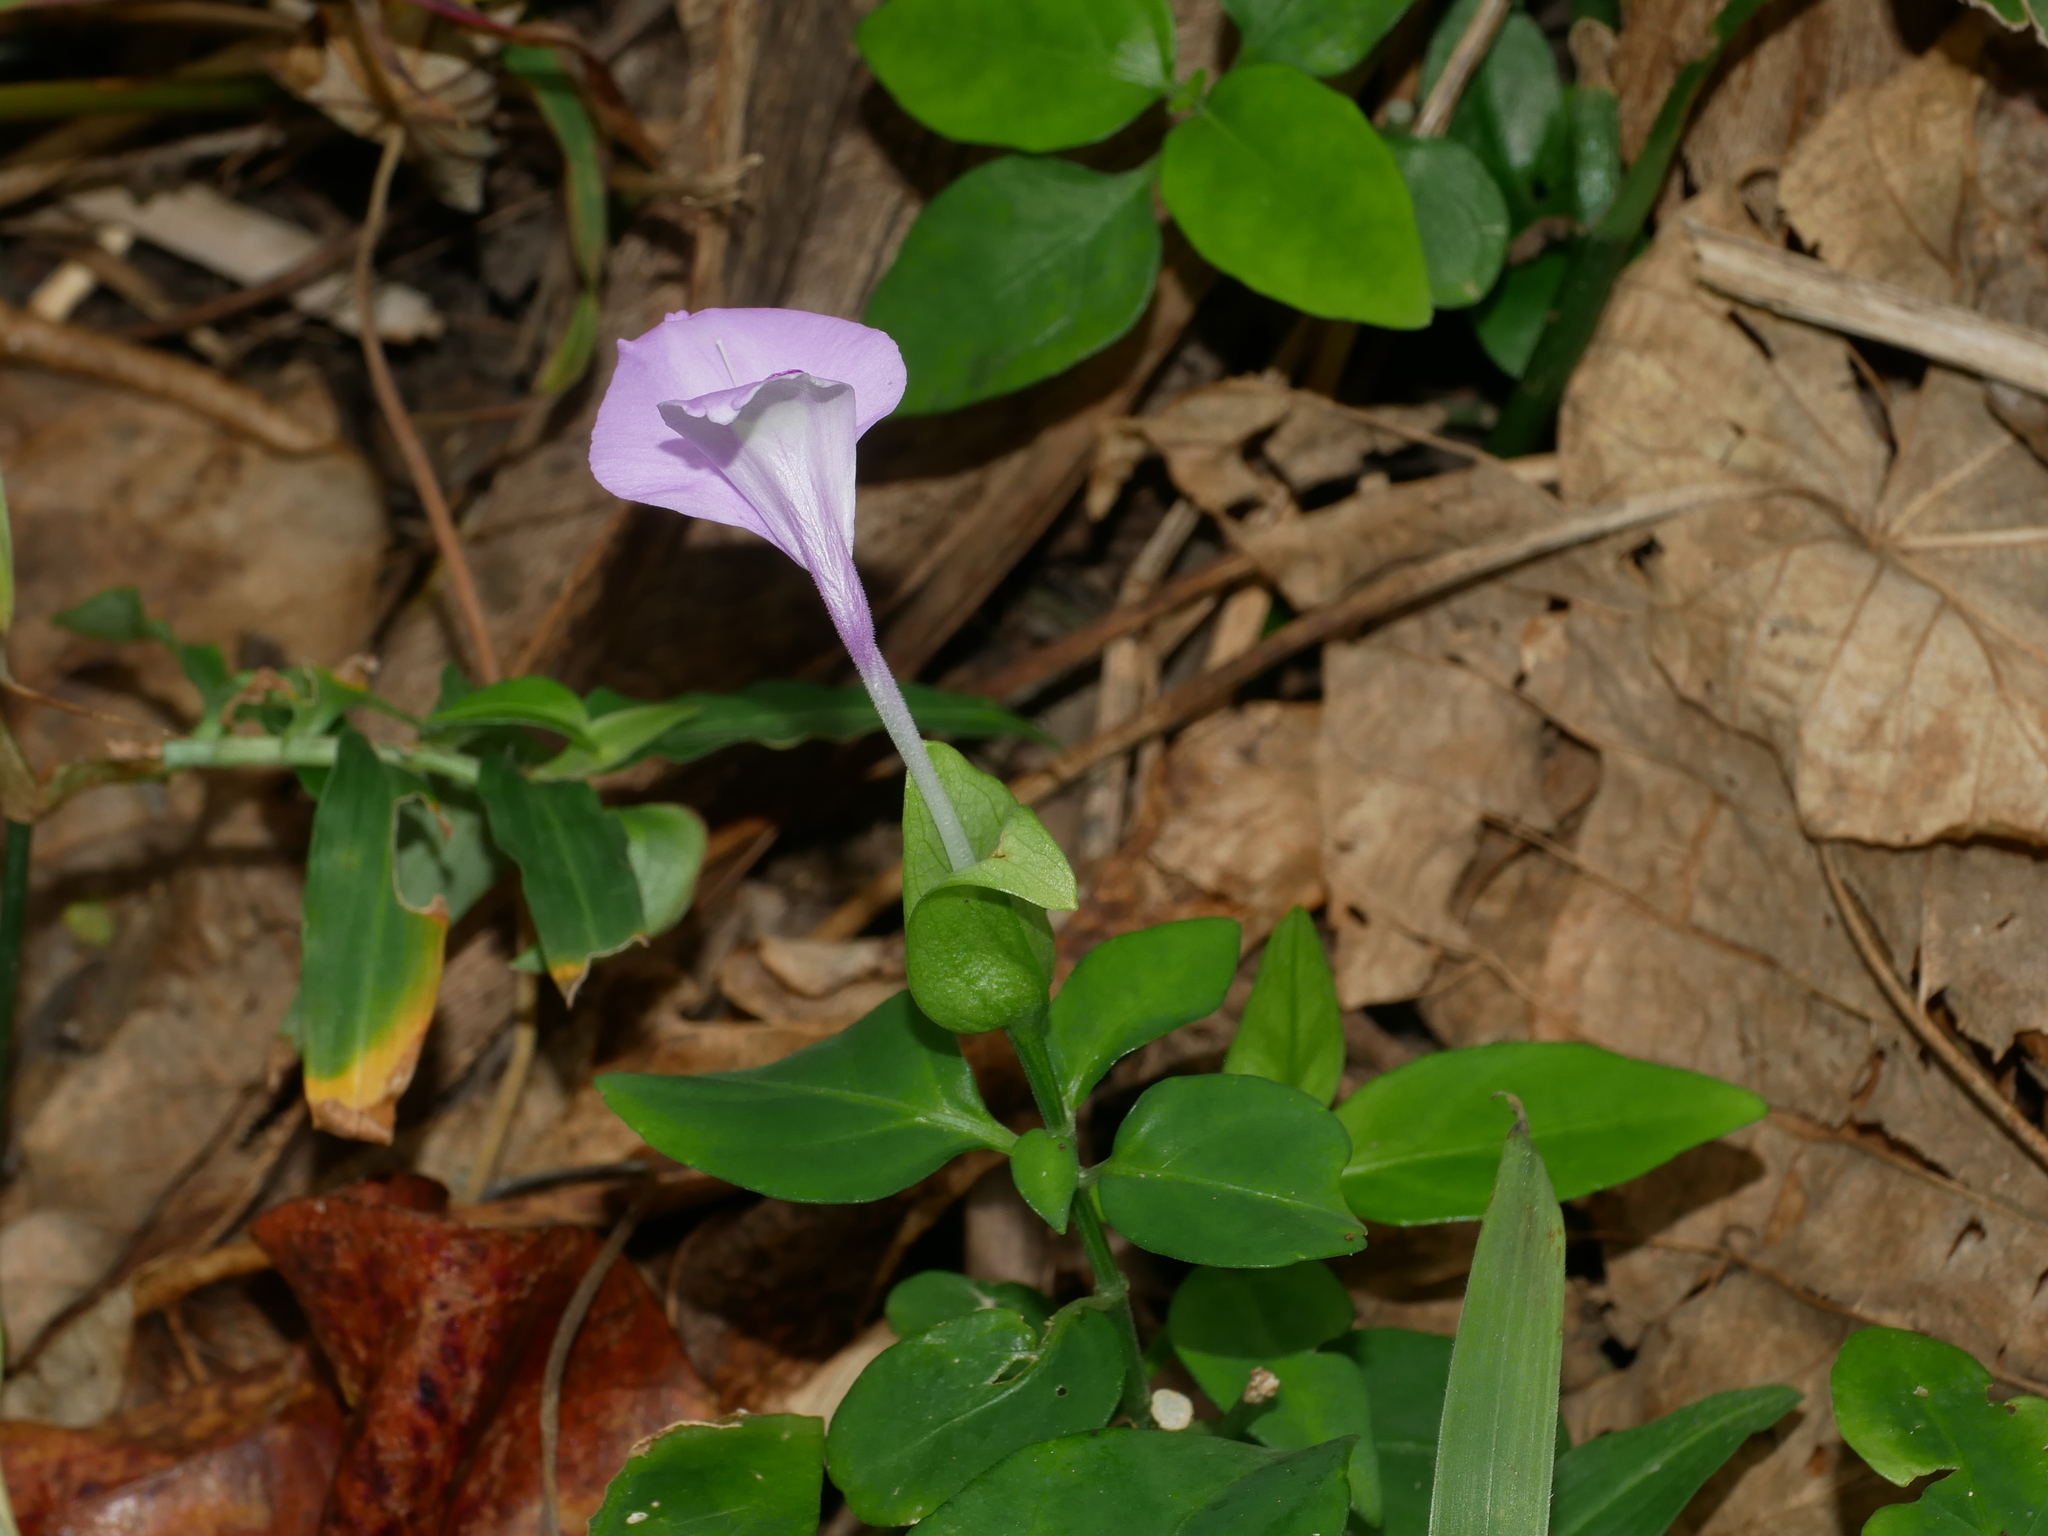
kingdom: Plantae
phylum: Tracheophyta
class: Magnoliopsida
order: Lamiales
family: Acanthaceae
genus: Dicliptera
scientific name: Dicliptera tinctoria
